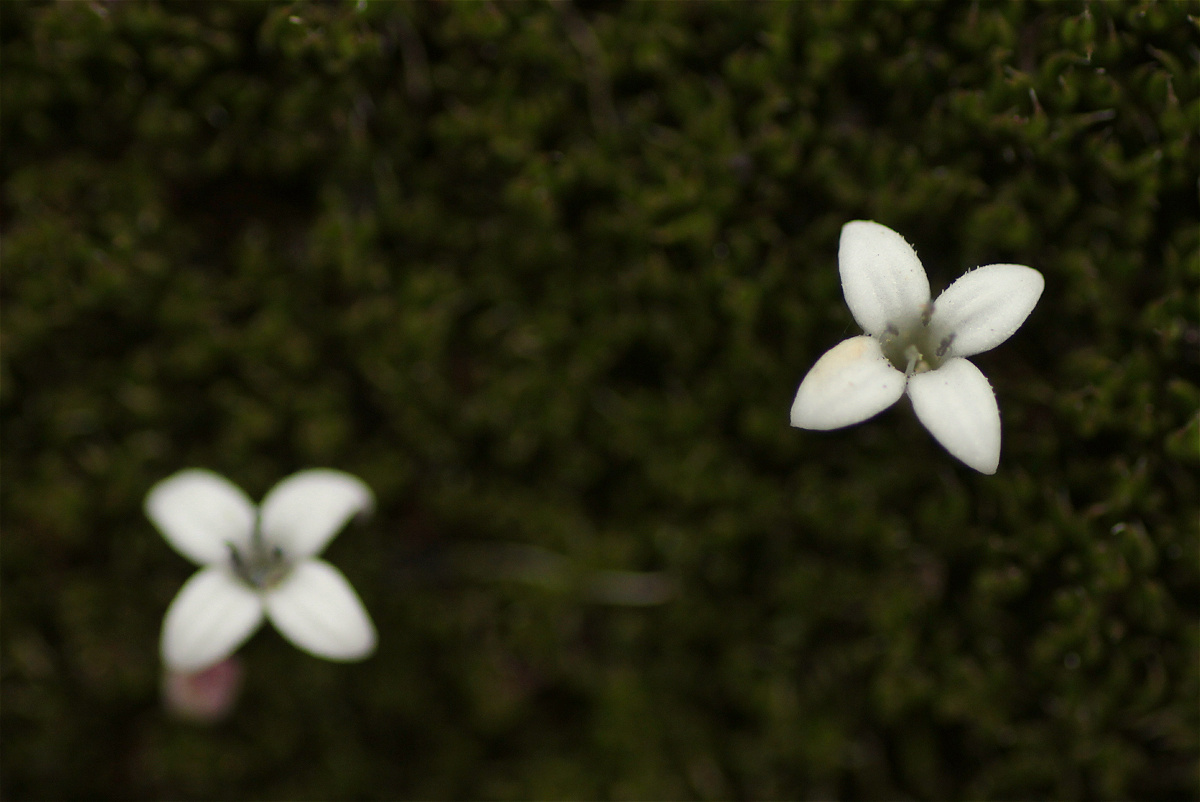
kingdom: Plantae
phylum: Tracheophyta
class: Magnoliopsida
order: Gentianales
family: Rubiaceae
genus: Arcytophyllum
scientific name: Arcytophyllum filiforme
